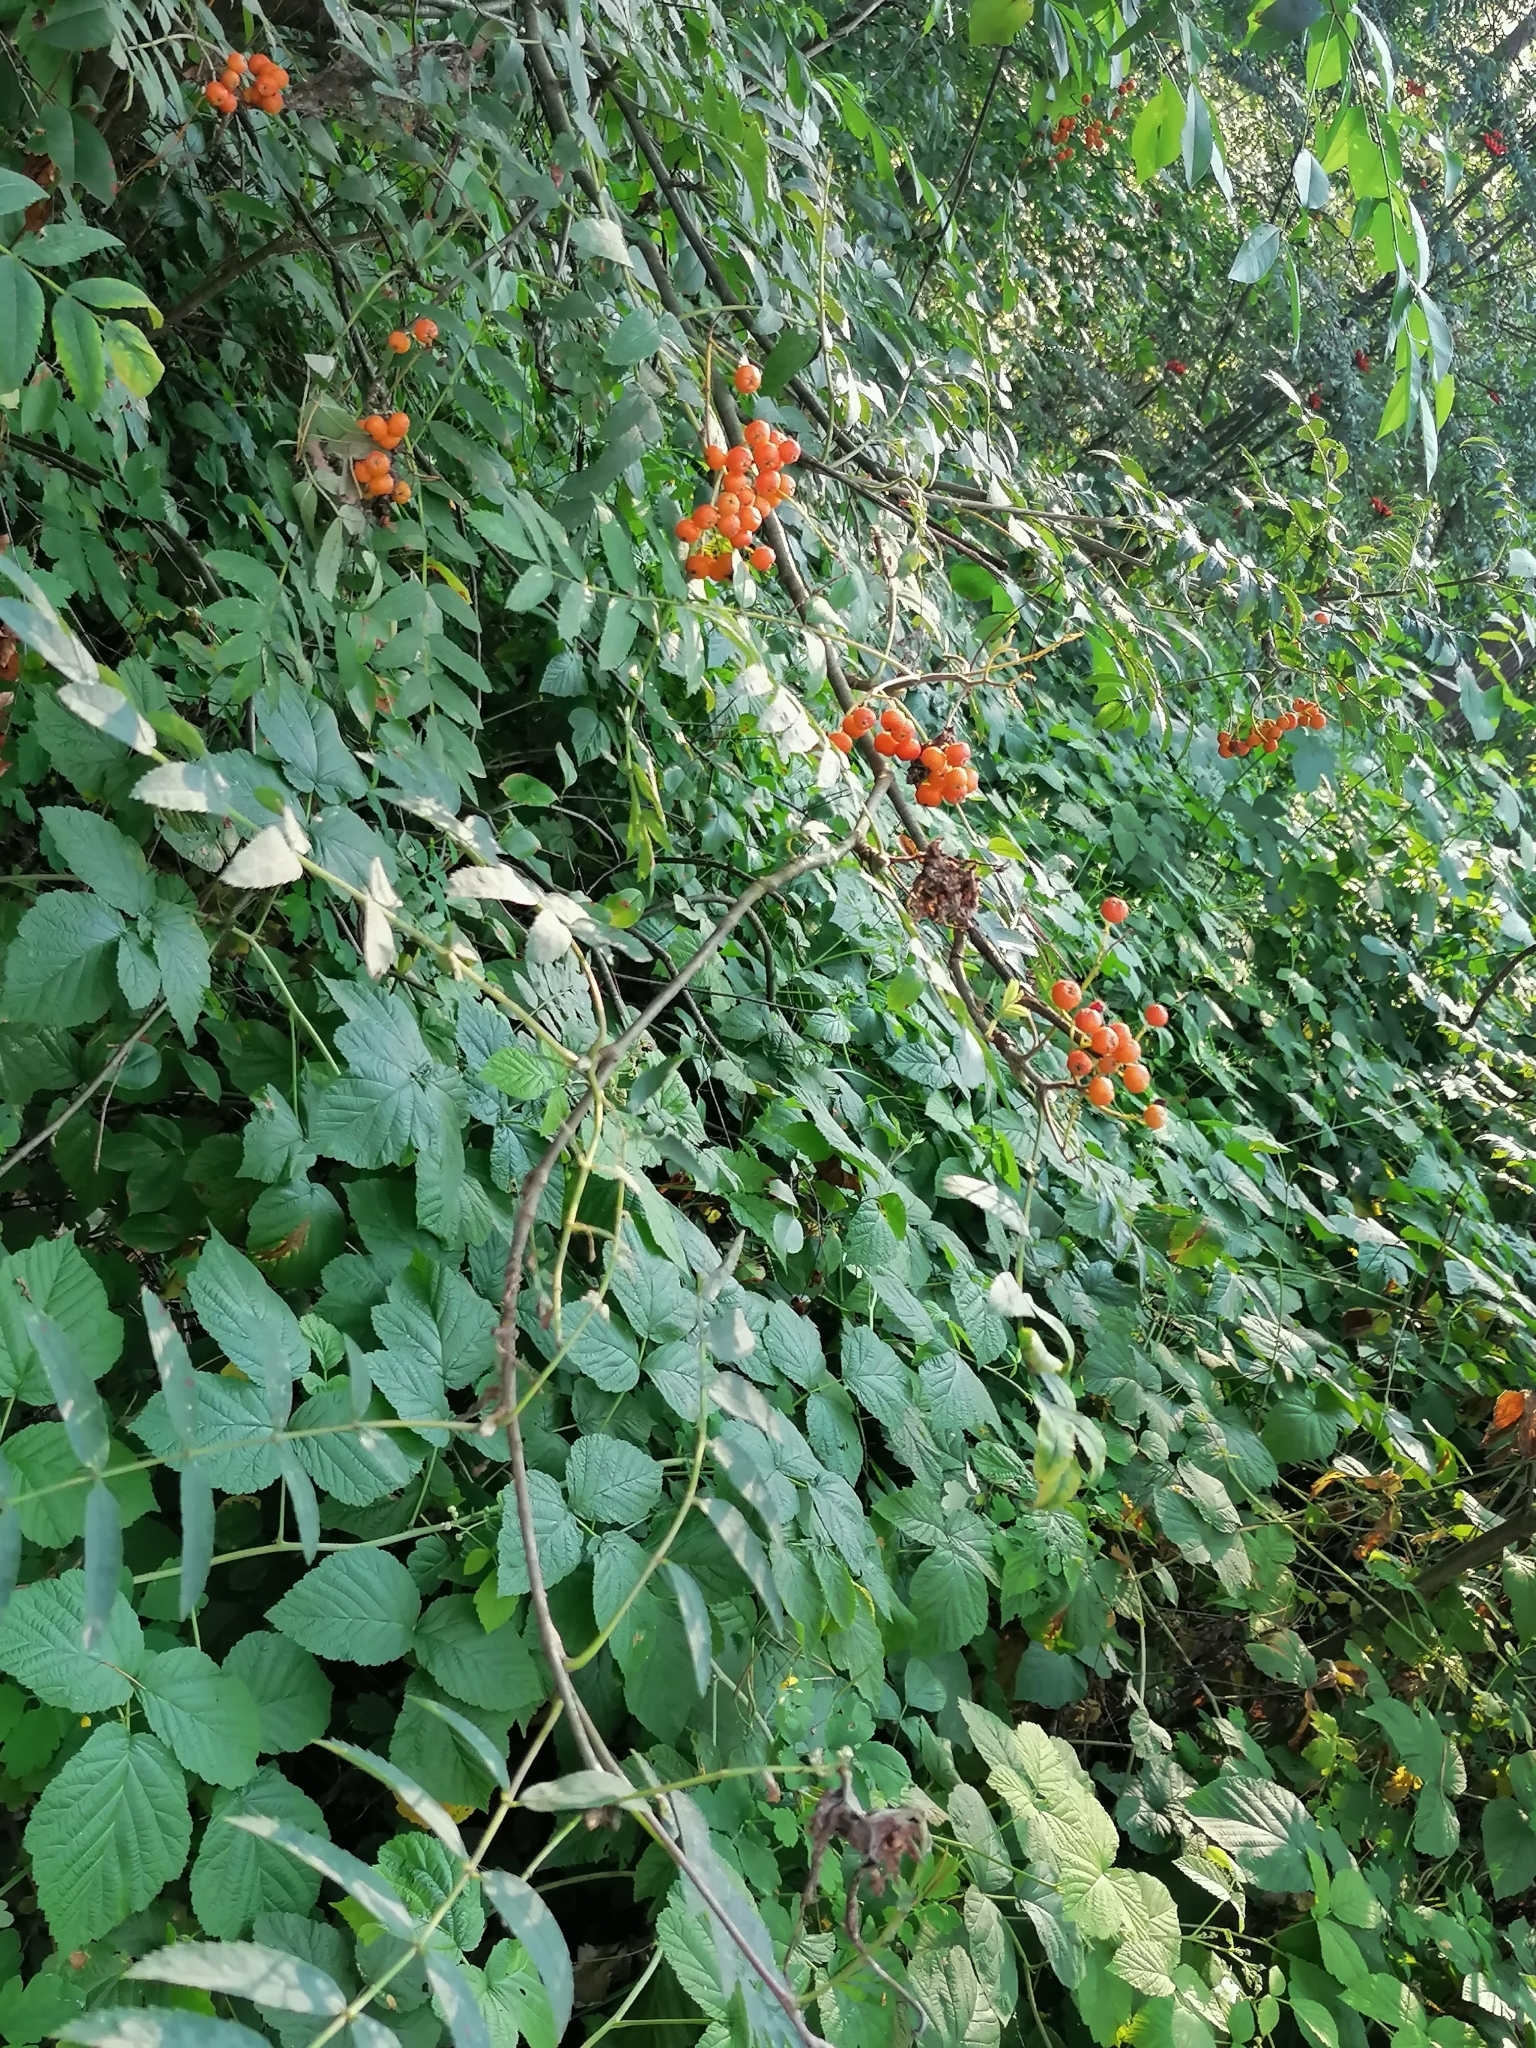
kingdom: Plantae
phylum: Tracheophyta
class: Magnoliopsida
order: Rosales
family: Rosaceae
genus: Sorbus
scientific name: Sorbus aucuparia
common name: Rowan
